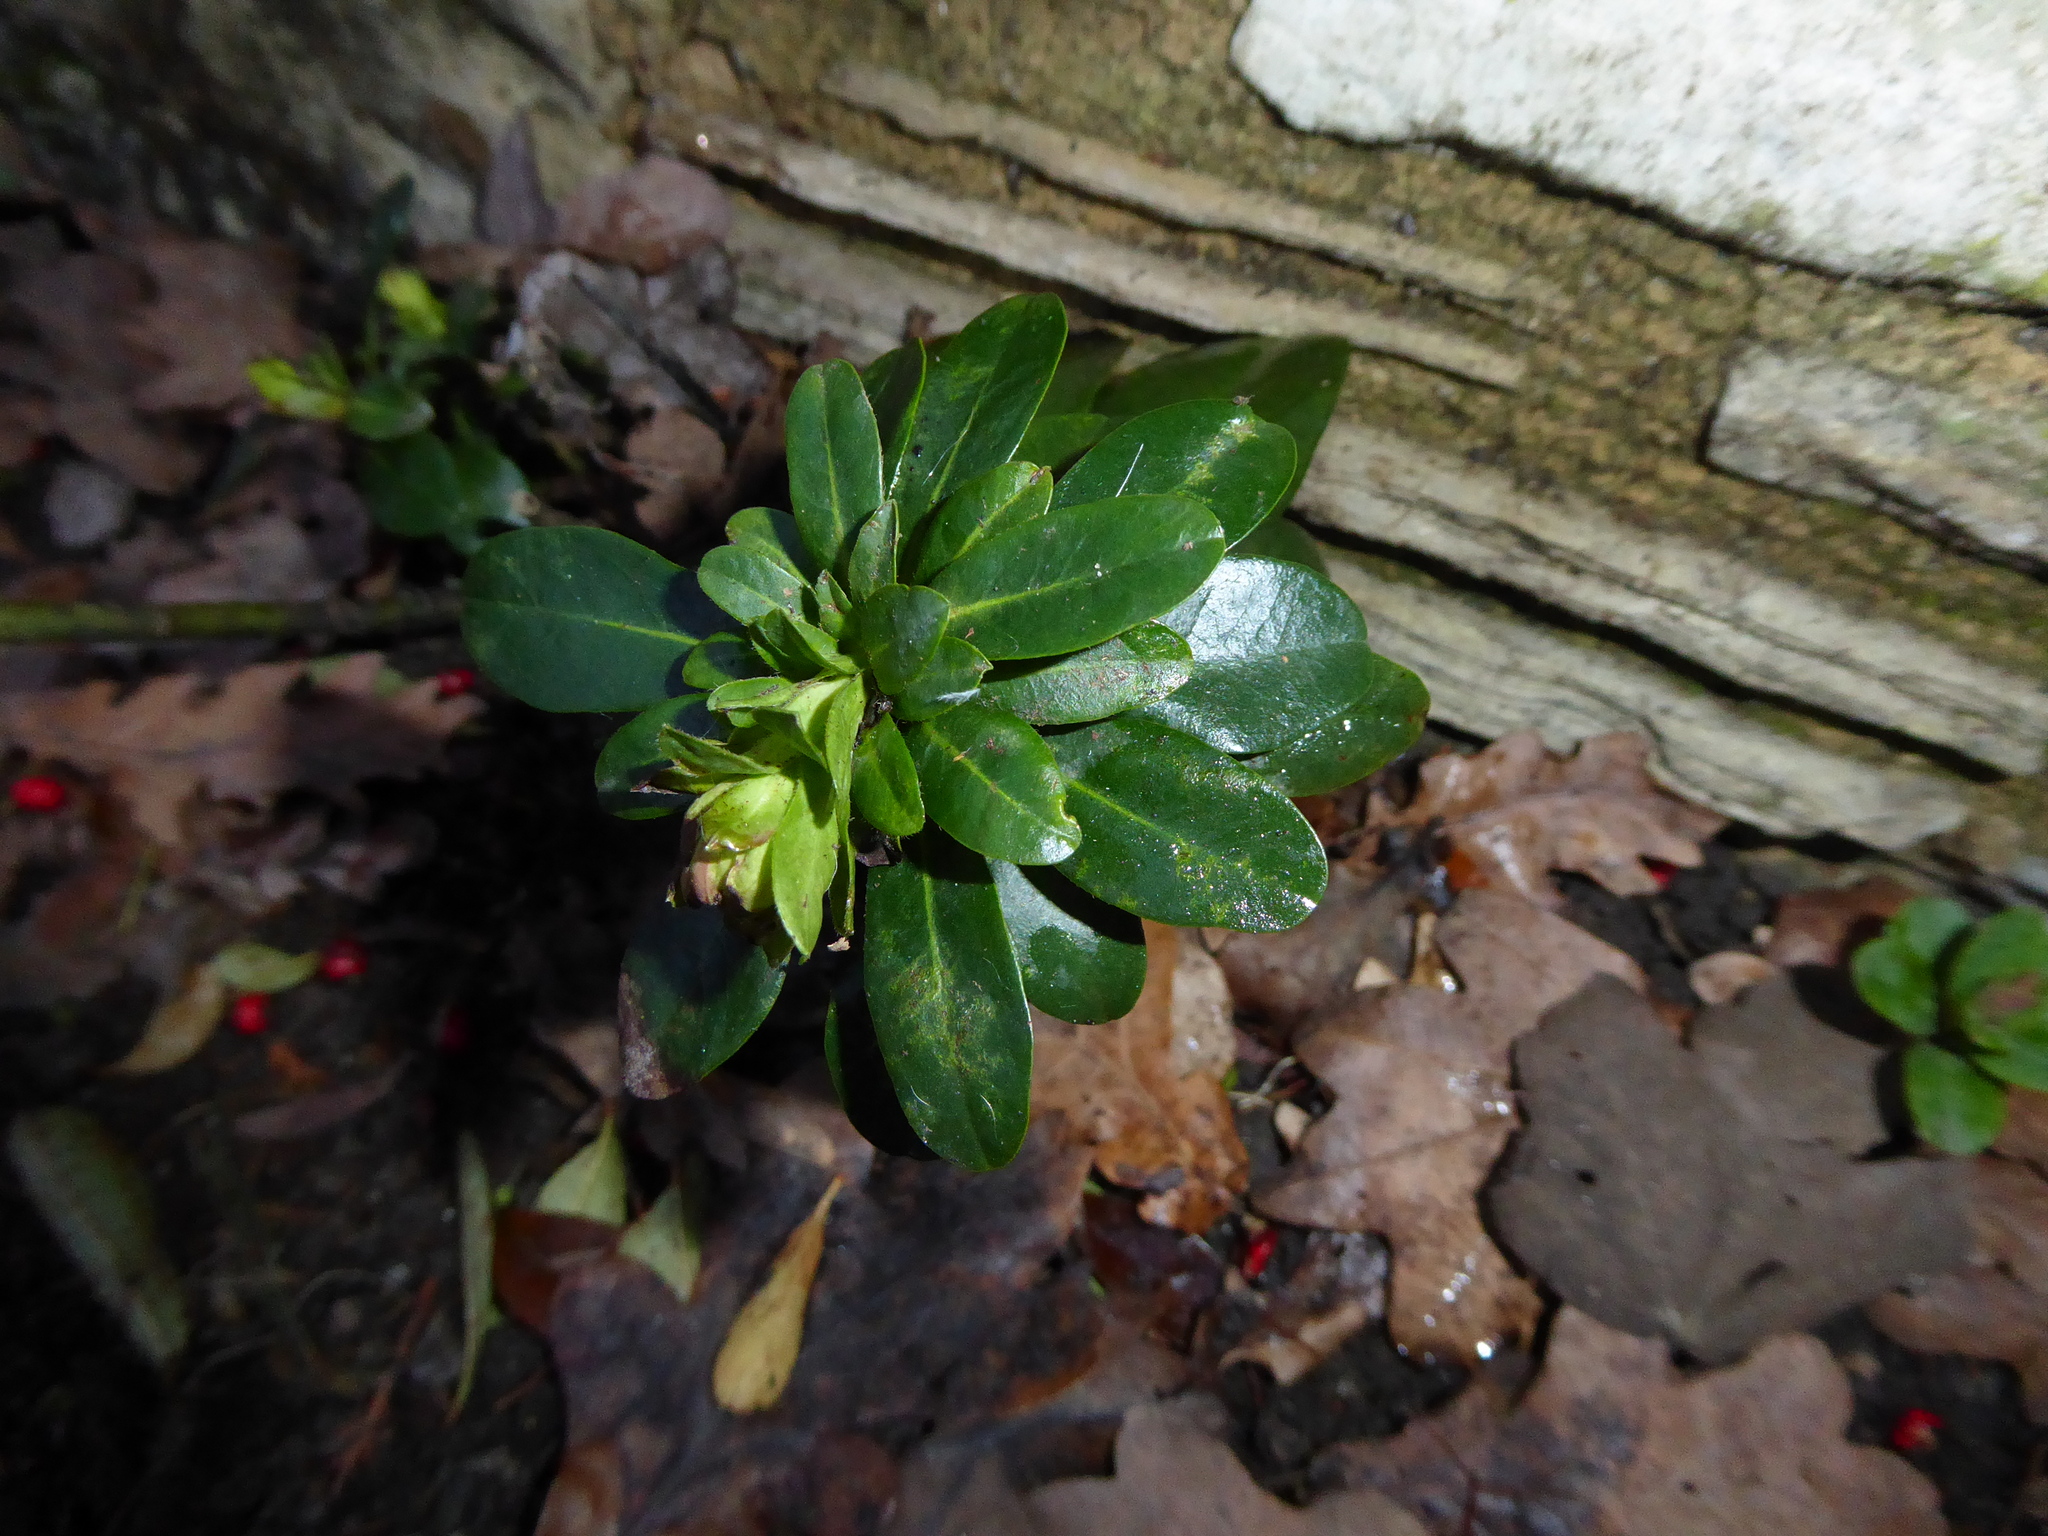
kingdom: Plantae
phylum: Tracheophyta
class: Magnoliopsida
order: Malpighiales
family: Euphorbiaceae
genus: Euphorbia
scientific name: Euphorbia amygdaloides
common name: Wood spurge
